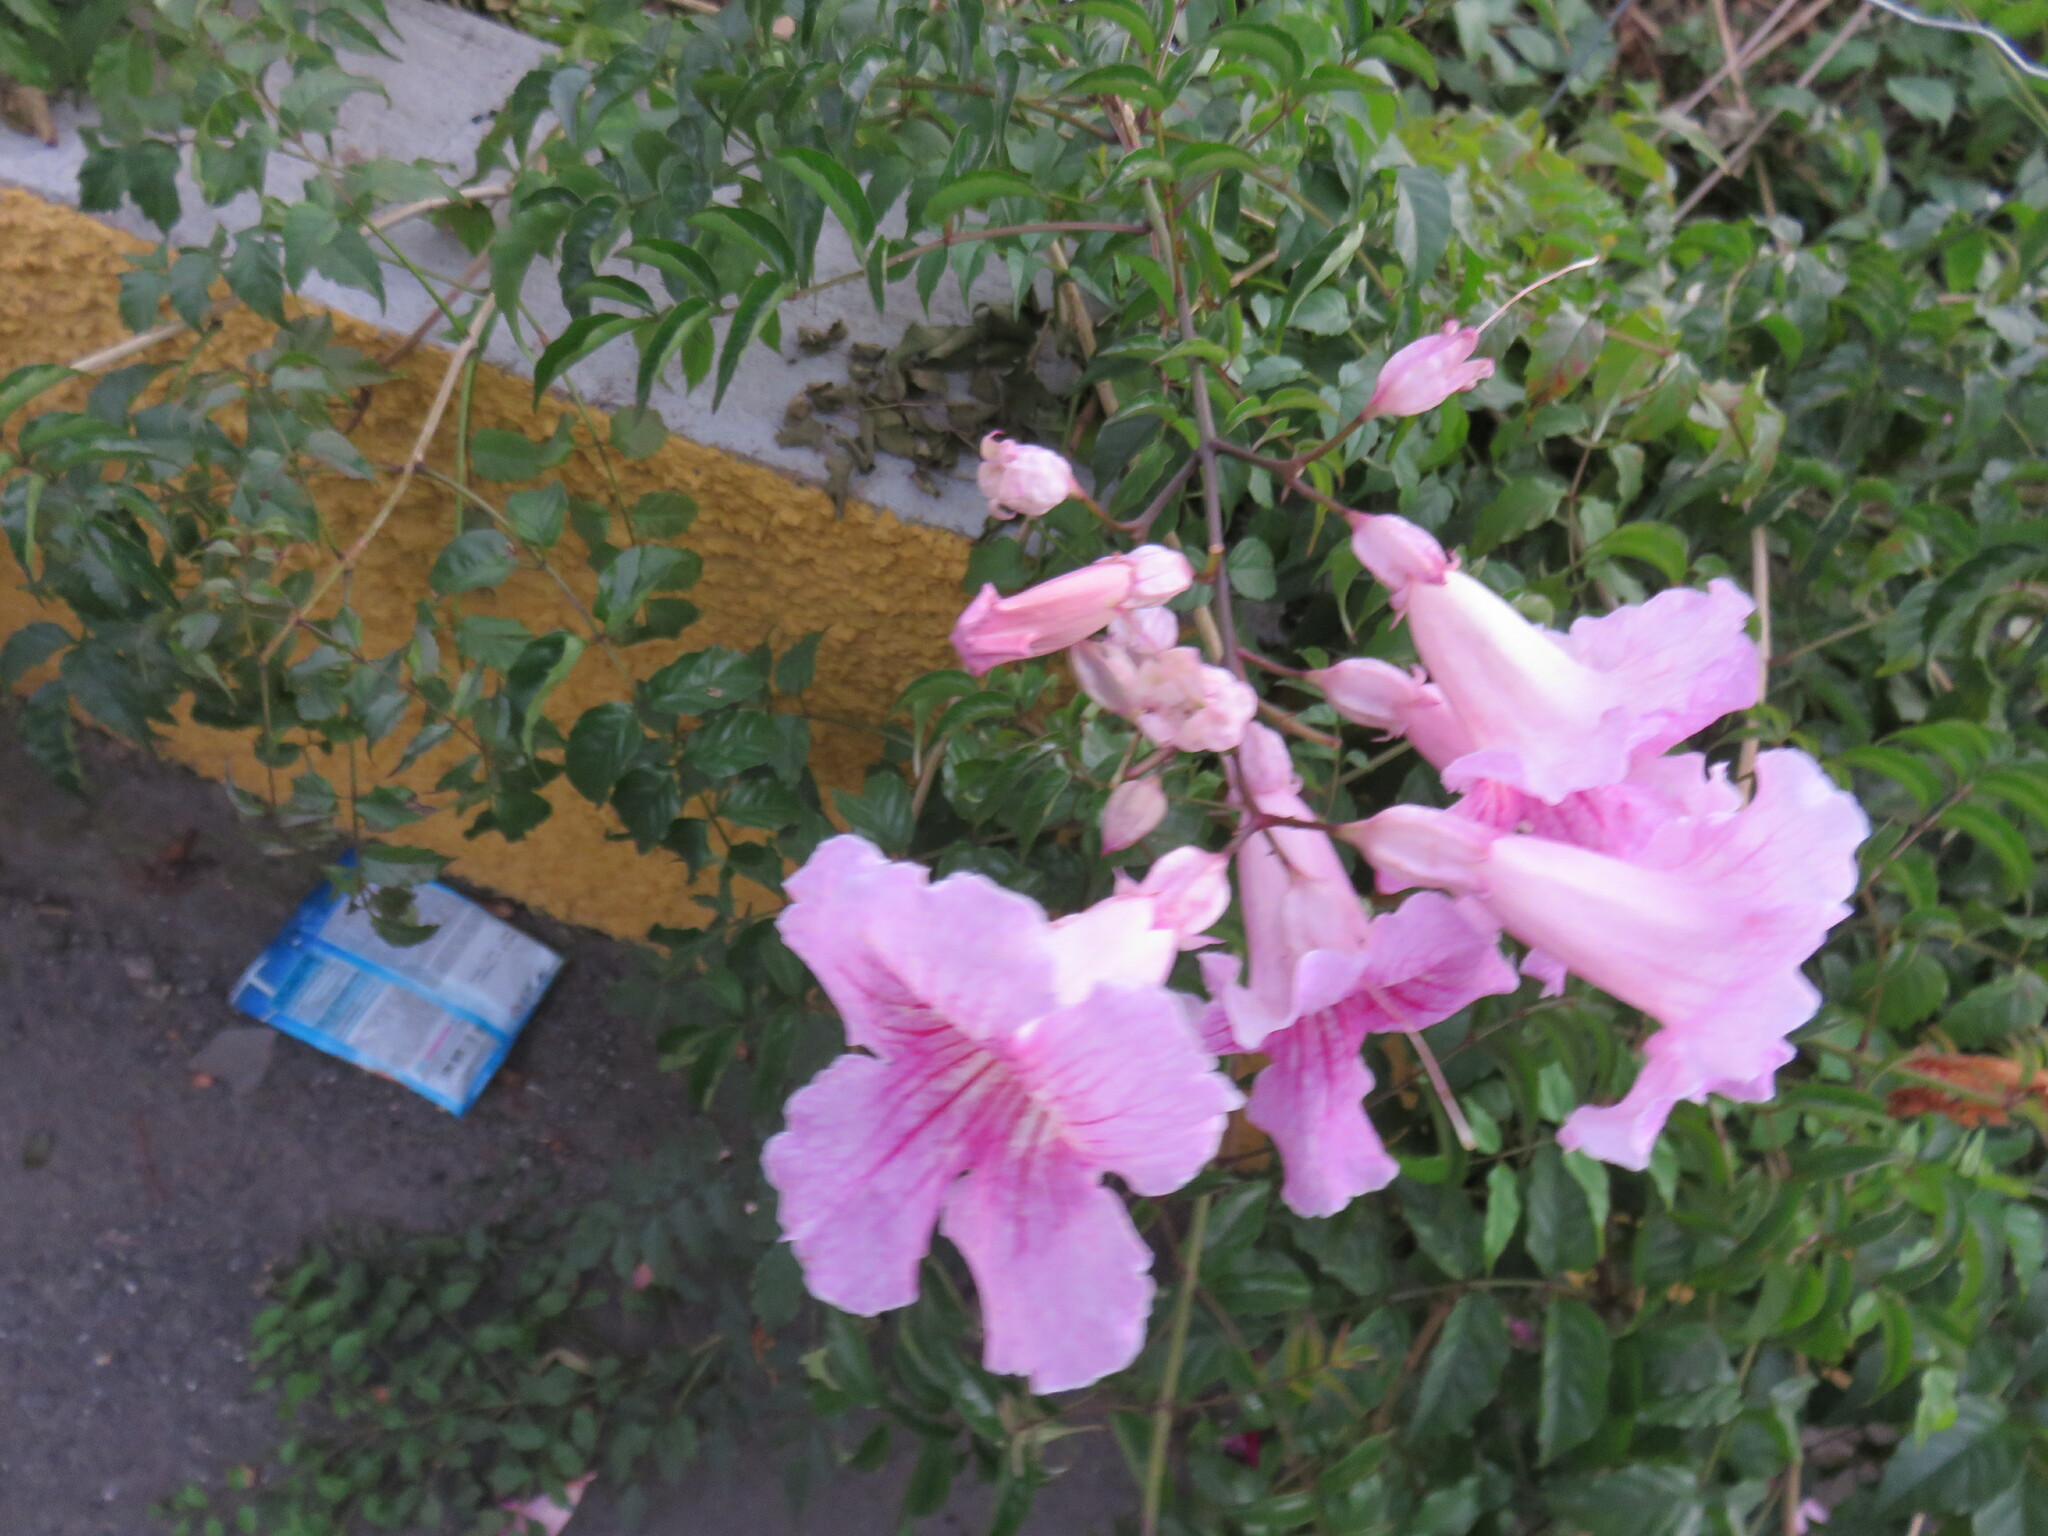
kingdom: Plantae
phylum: Tracheophyta
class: Magnoliopsida
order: Lamiales
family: Bignoniaceae
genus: Podranea
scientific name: Podranea ricasoliana
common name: Zimbabwe creeper
